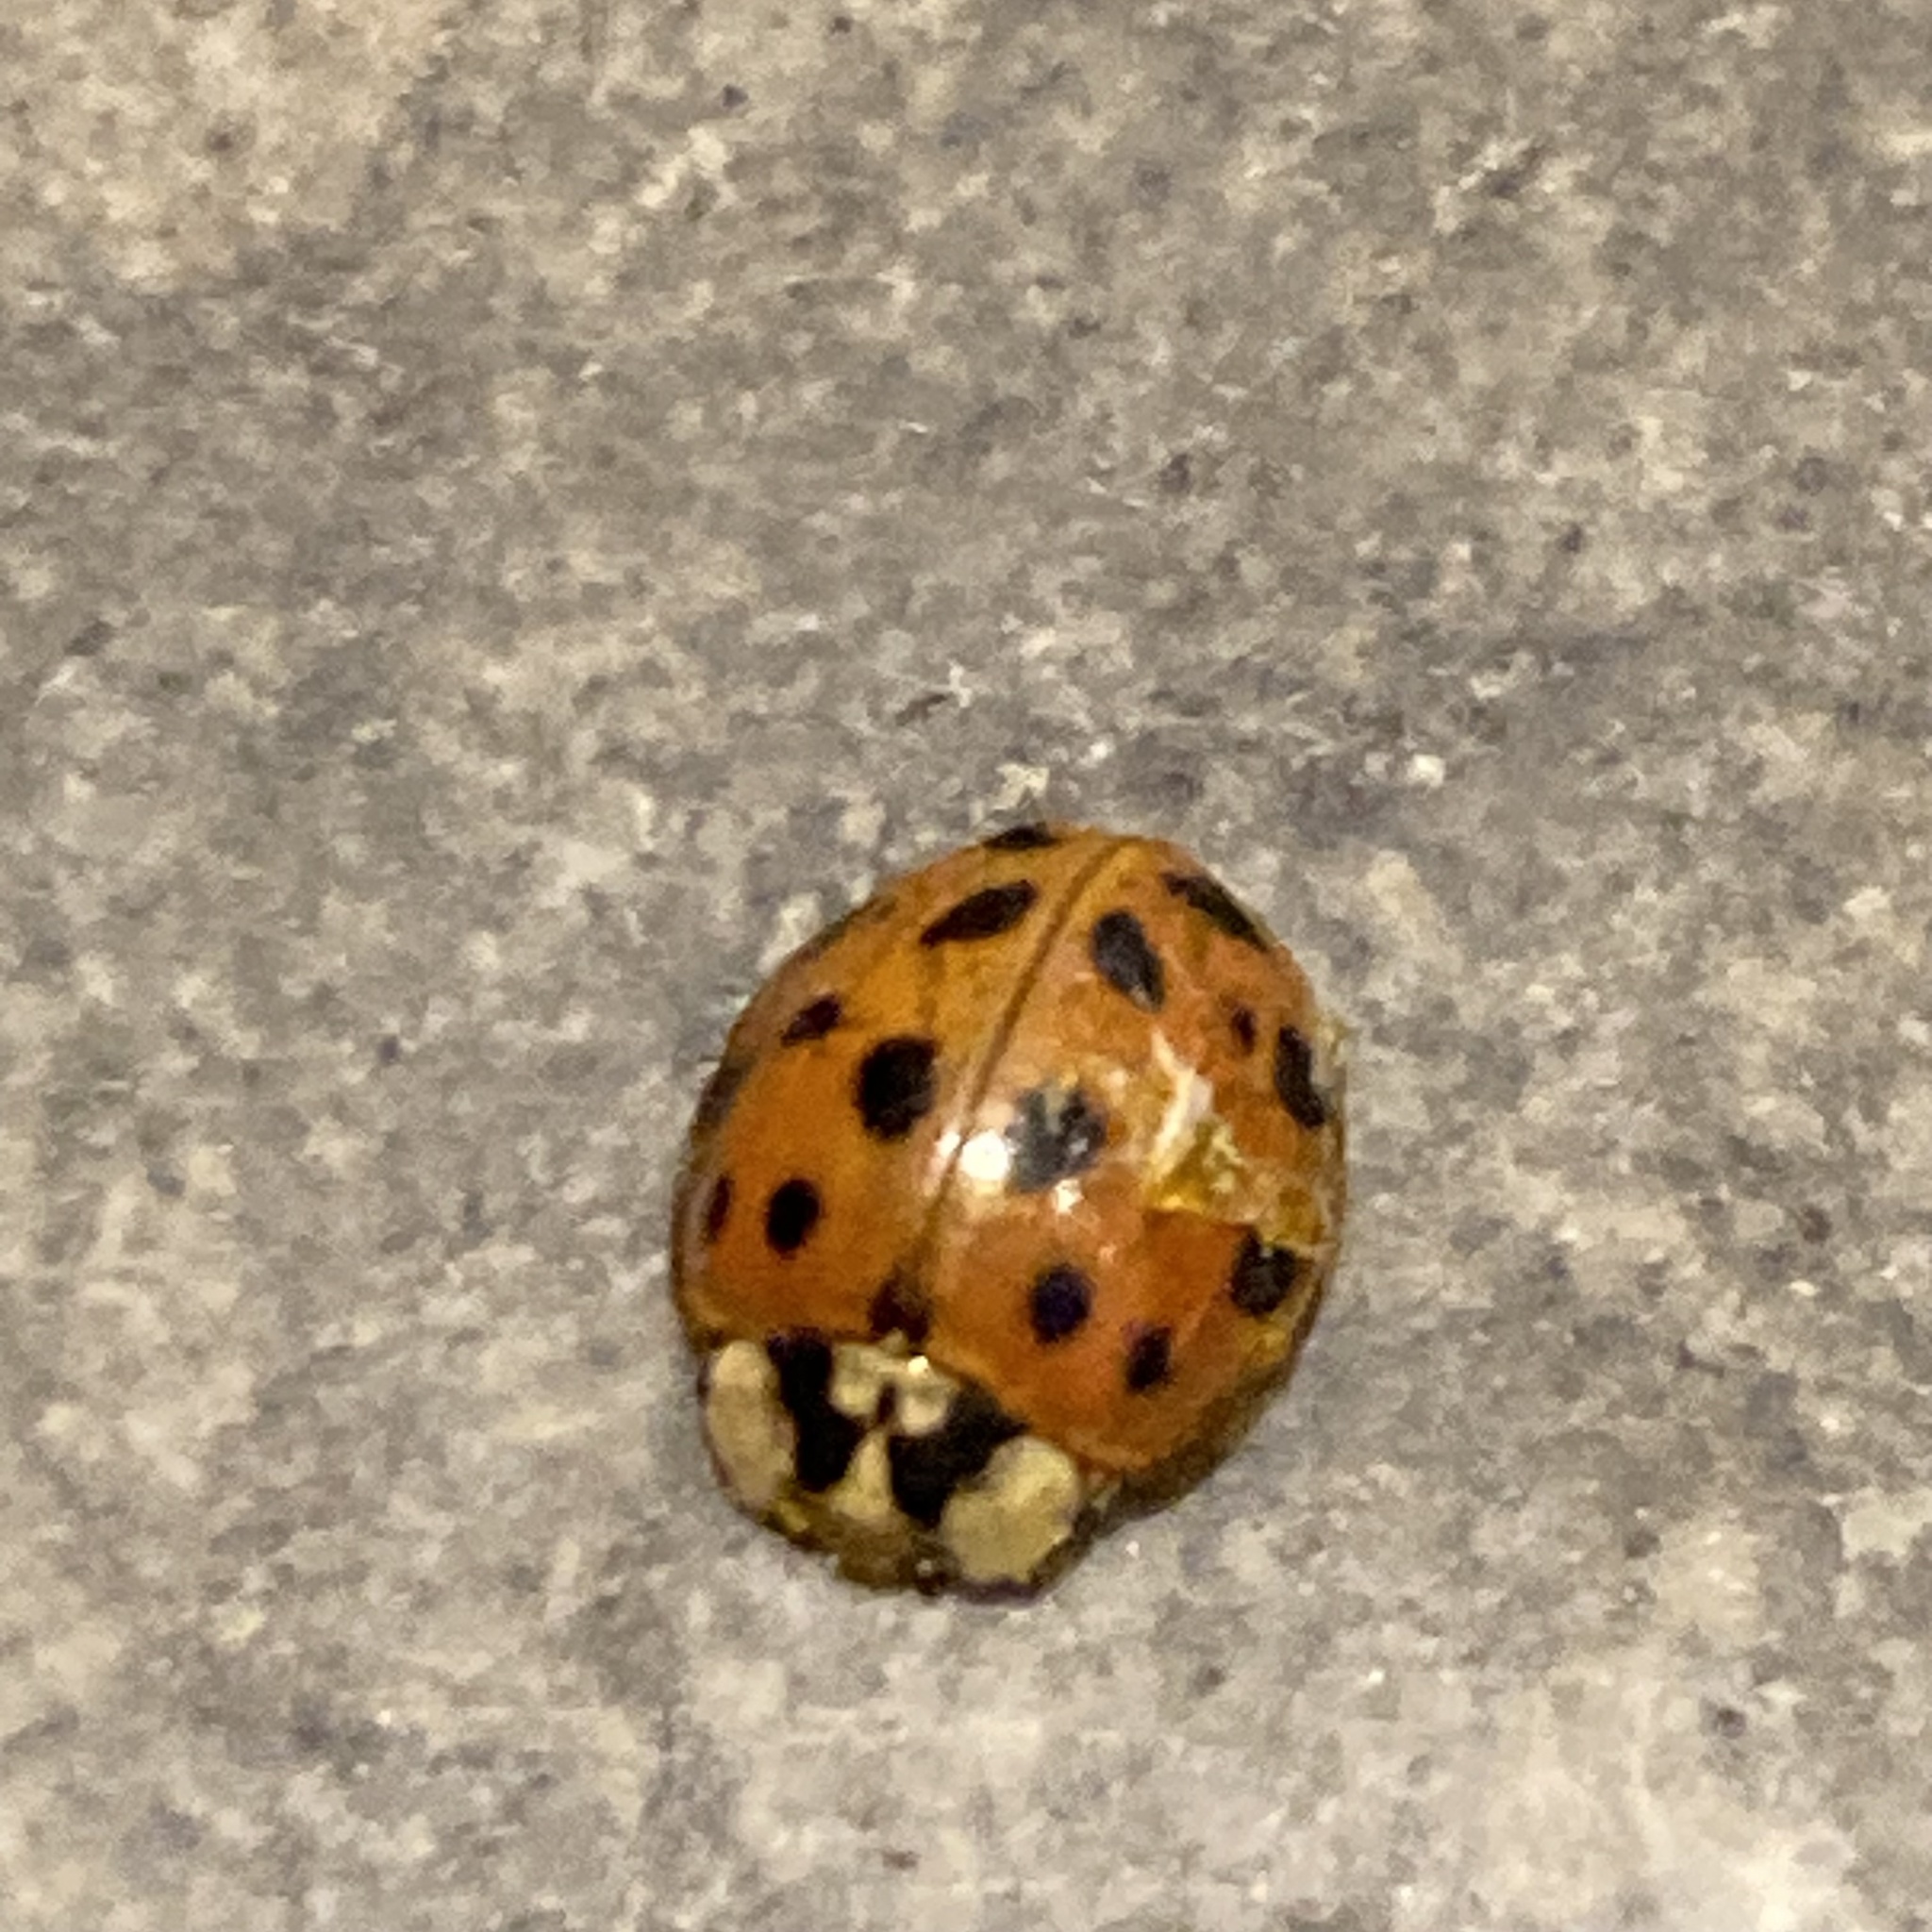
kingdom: Animalia
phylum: Arthropoda
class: Insecta
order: Coleoptera
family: Coccinellidae
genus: Harmonia
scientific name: Harmonia axyridis
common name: Harlequin ladybird
